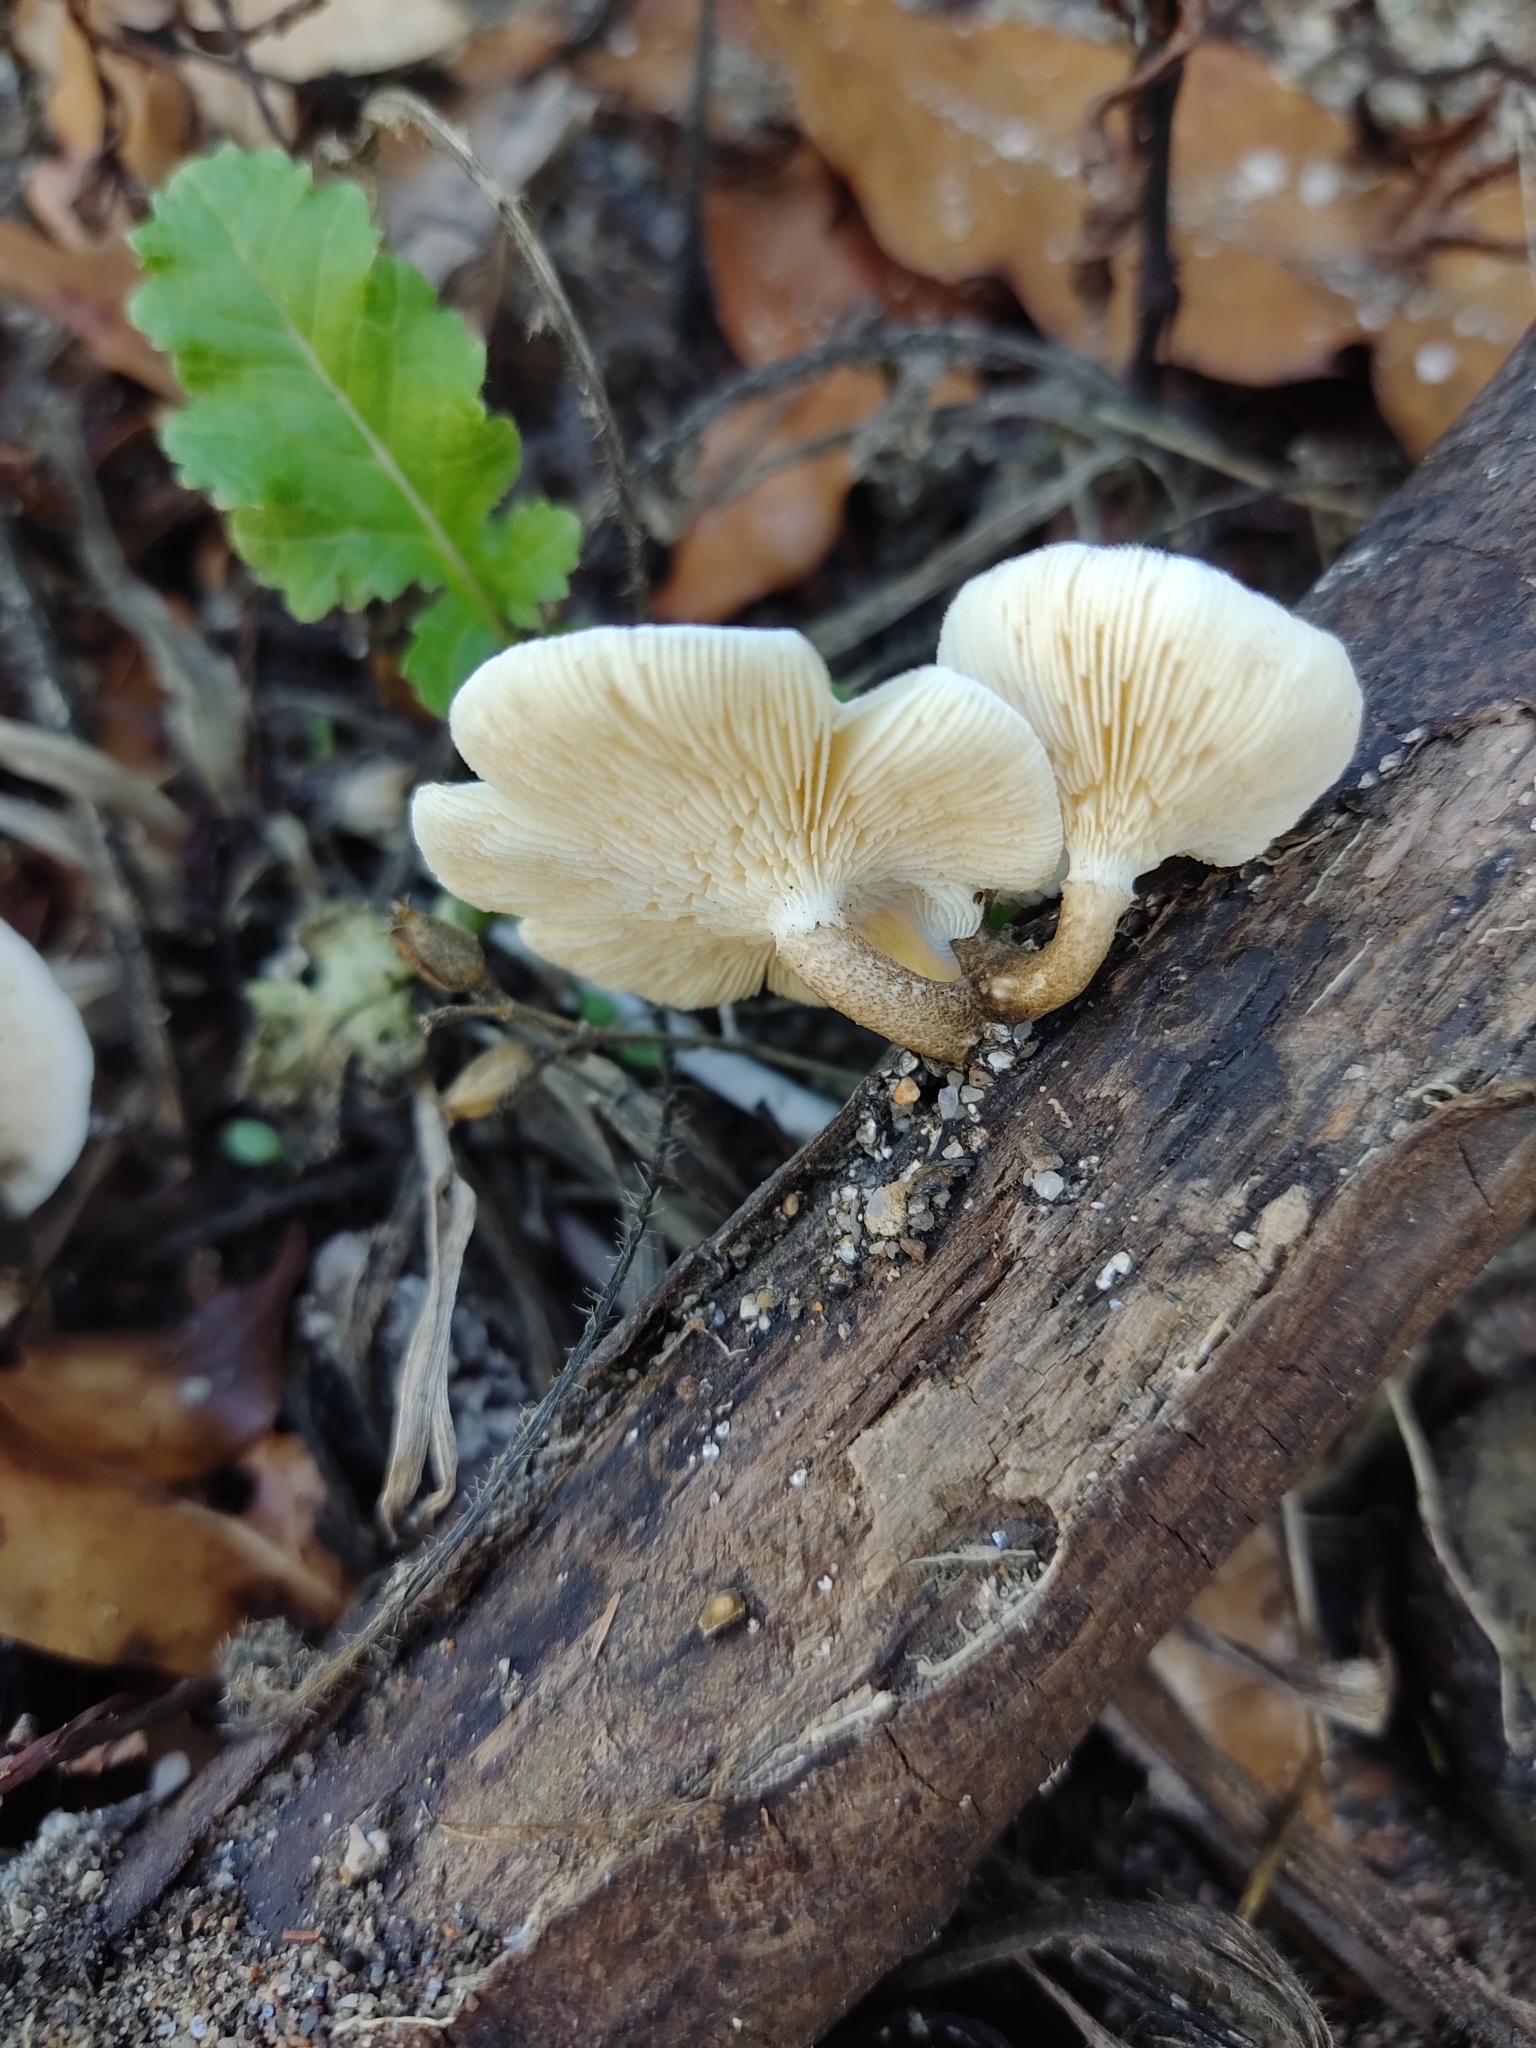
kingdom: Fungi
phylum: Basidiomycota
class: Agaricomycetes
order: Polyporales
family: Polyporaceae
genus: Lentinus
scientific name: Lentinus tigrinus
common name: Tiger sawgill
